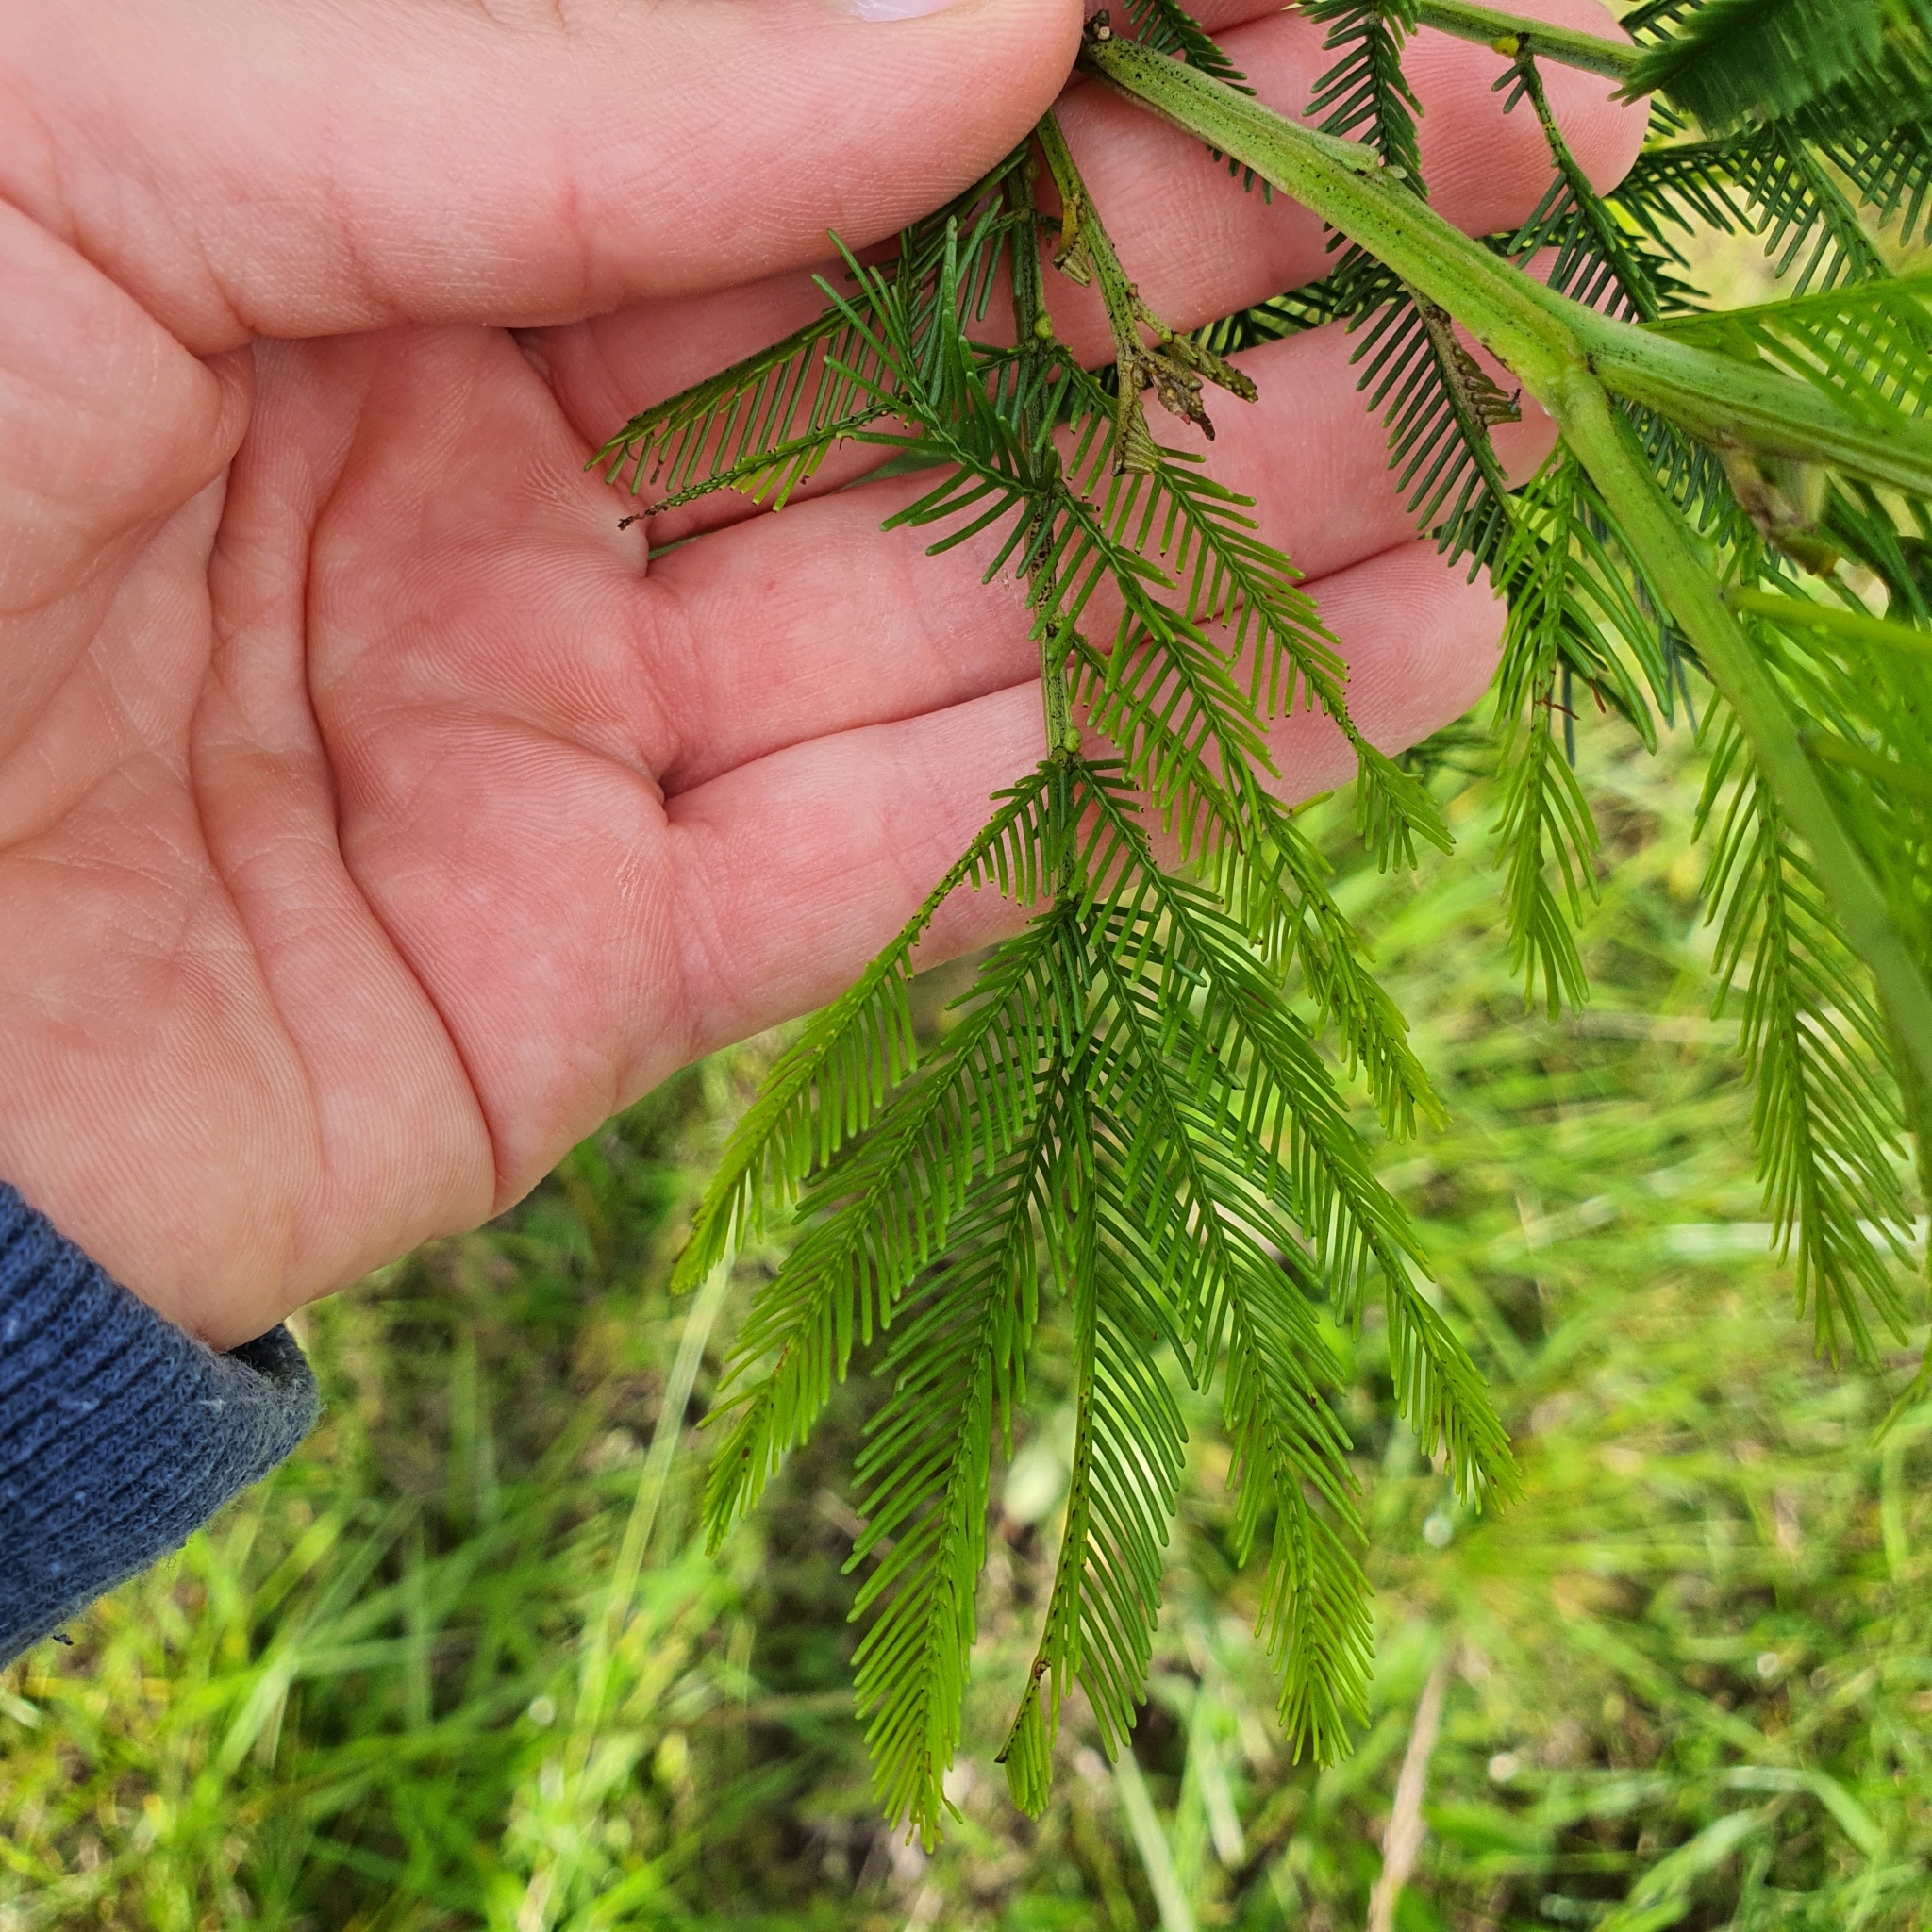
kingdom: Plantae
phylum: Tracheophyta
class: Magnoliopsida
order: Fabales
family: Fabaceae
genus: Acacia
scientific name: Acacia decurrens
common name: Green wattle
